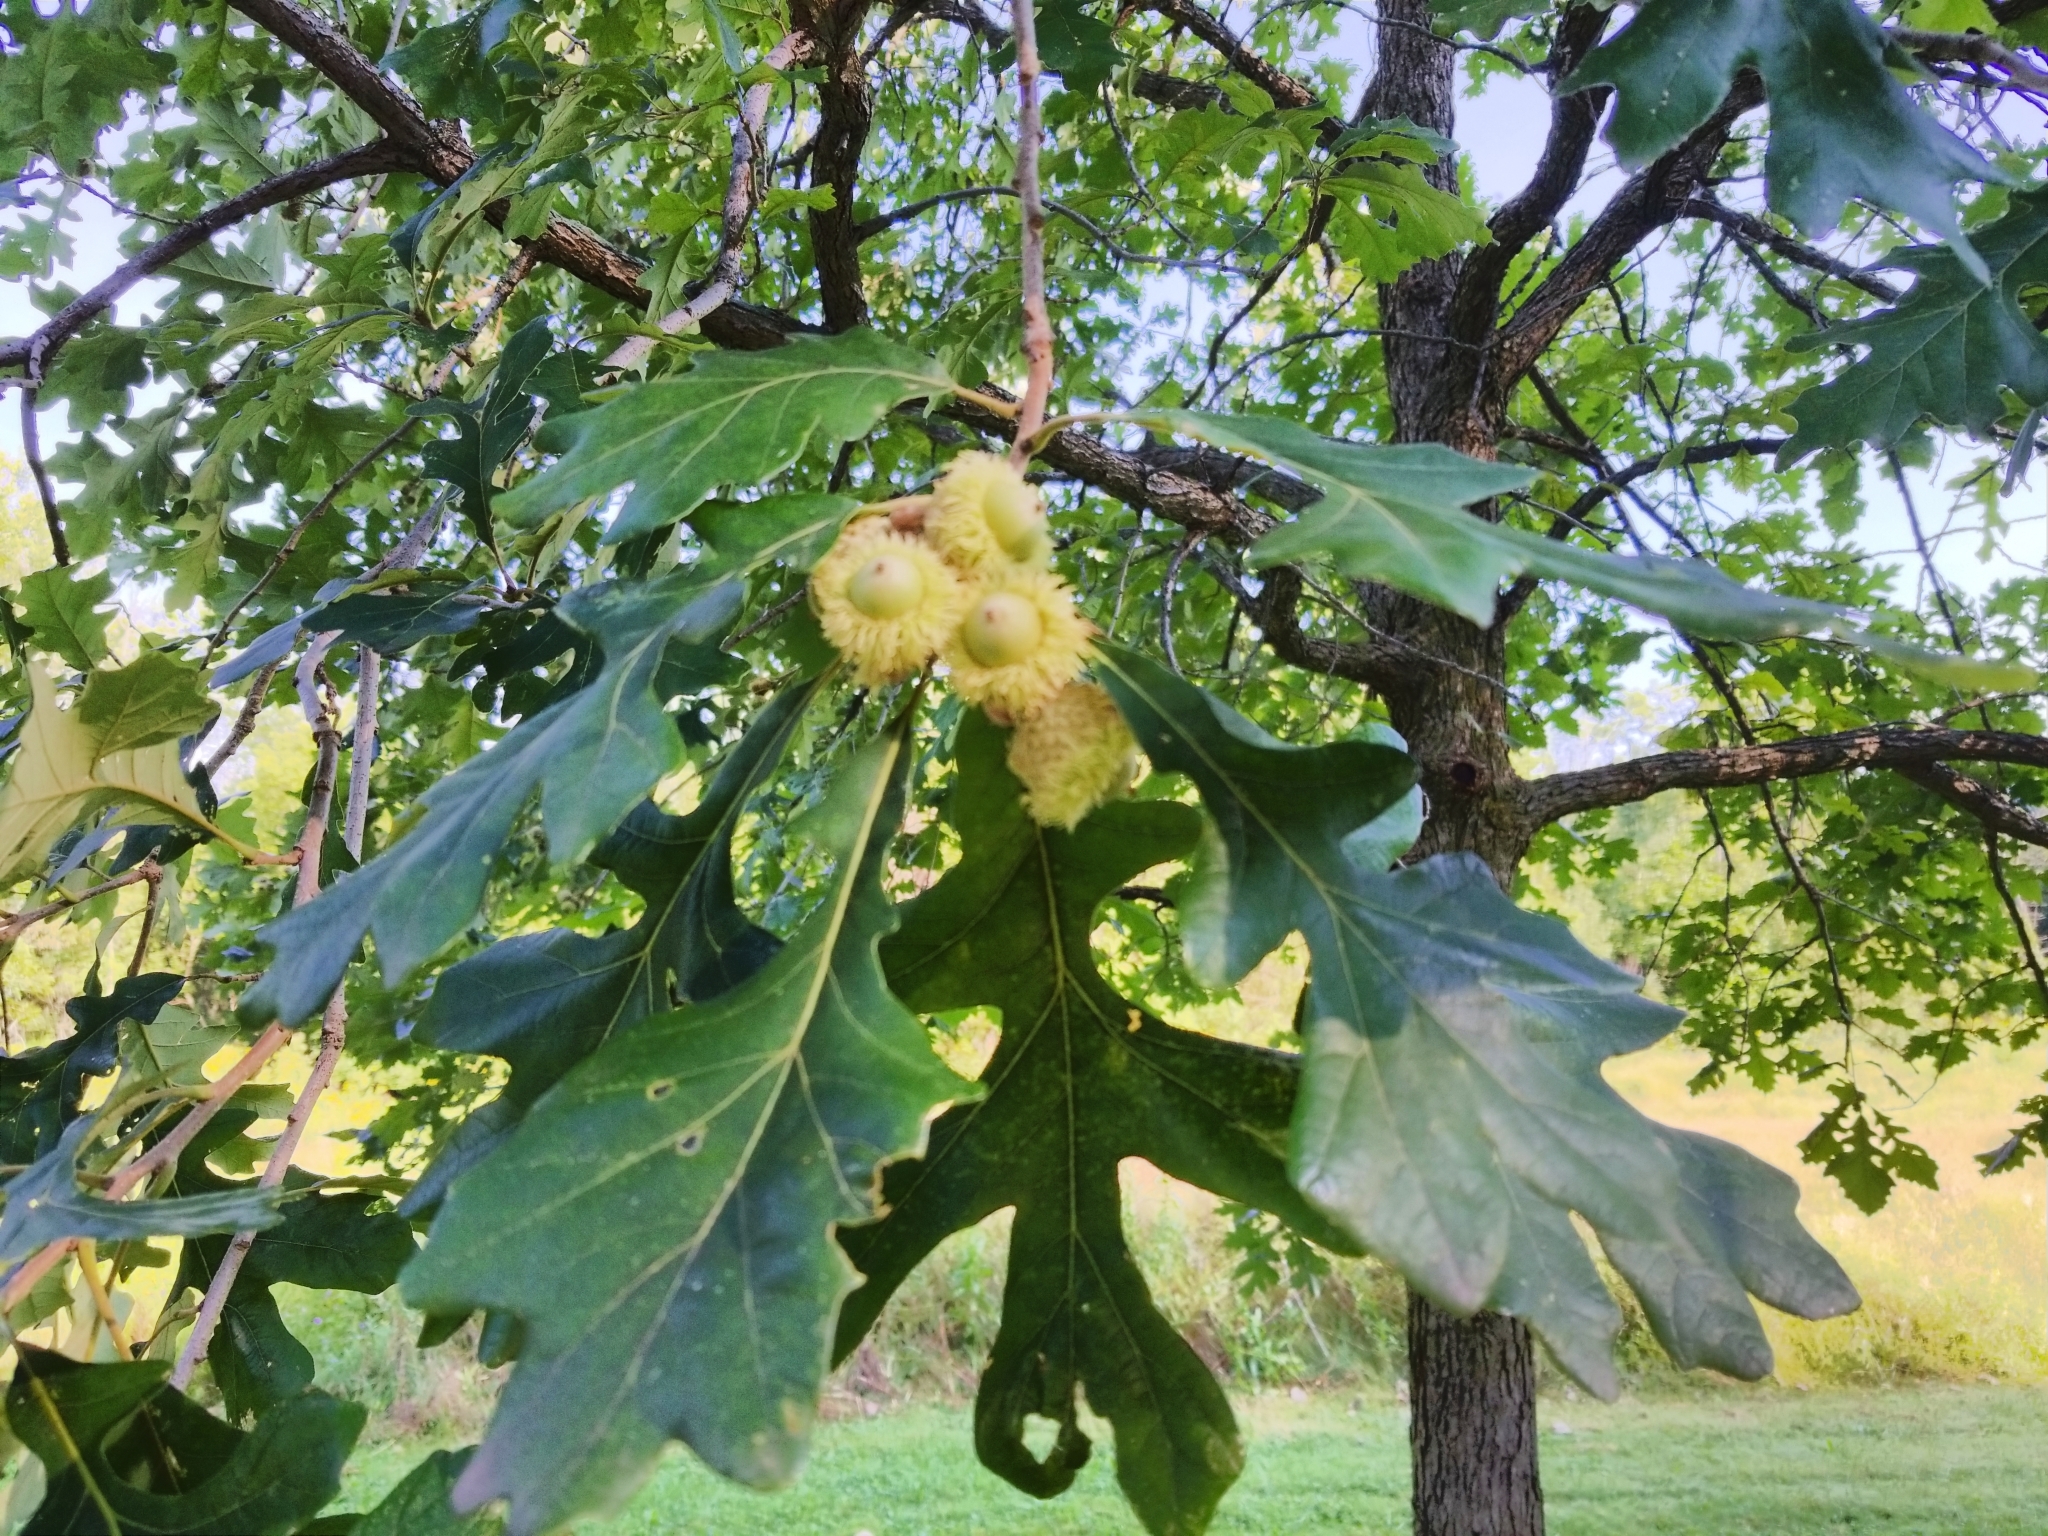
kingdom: Plantae
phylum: Tracheophyta
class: Magnoliopsida
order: Fagales
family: Fagaceae
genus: Quercus
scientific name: Quercus macrocarpa
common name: Bur oak
